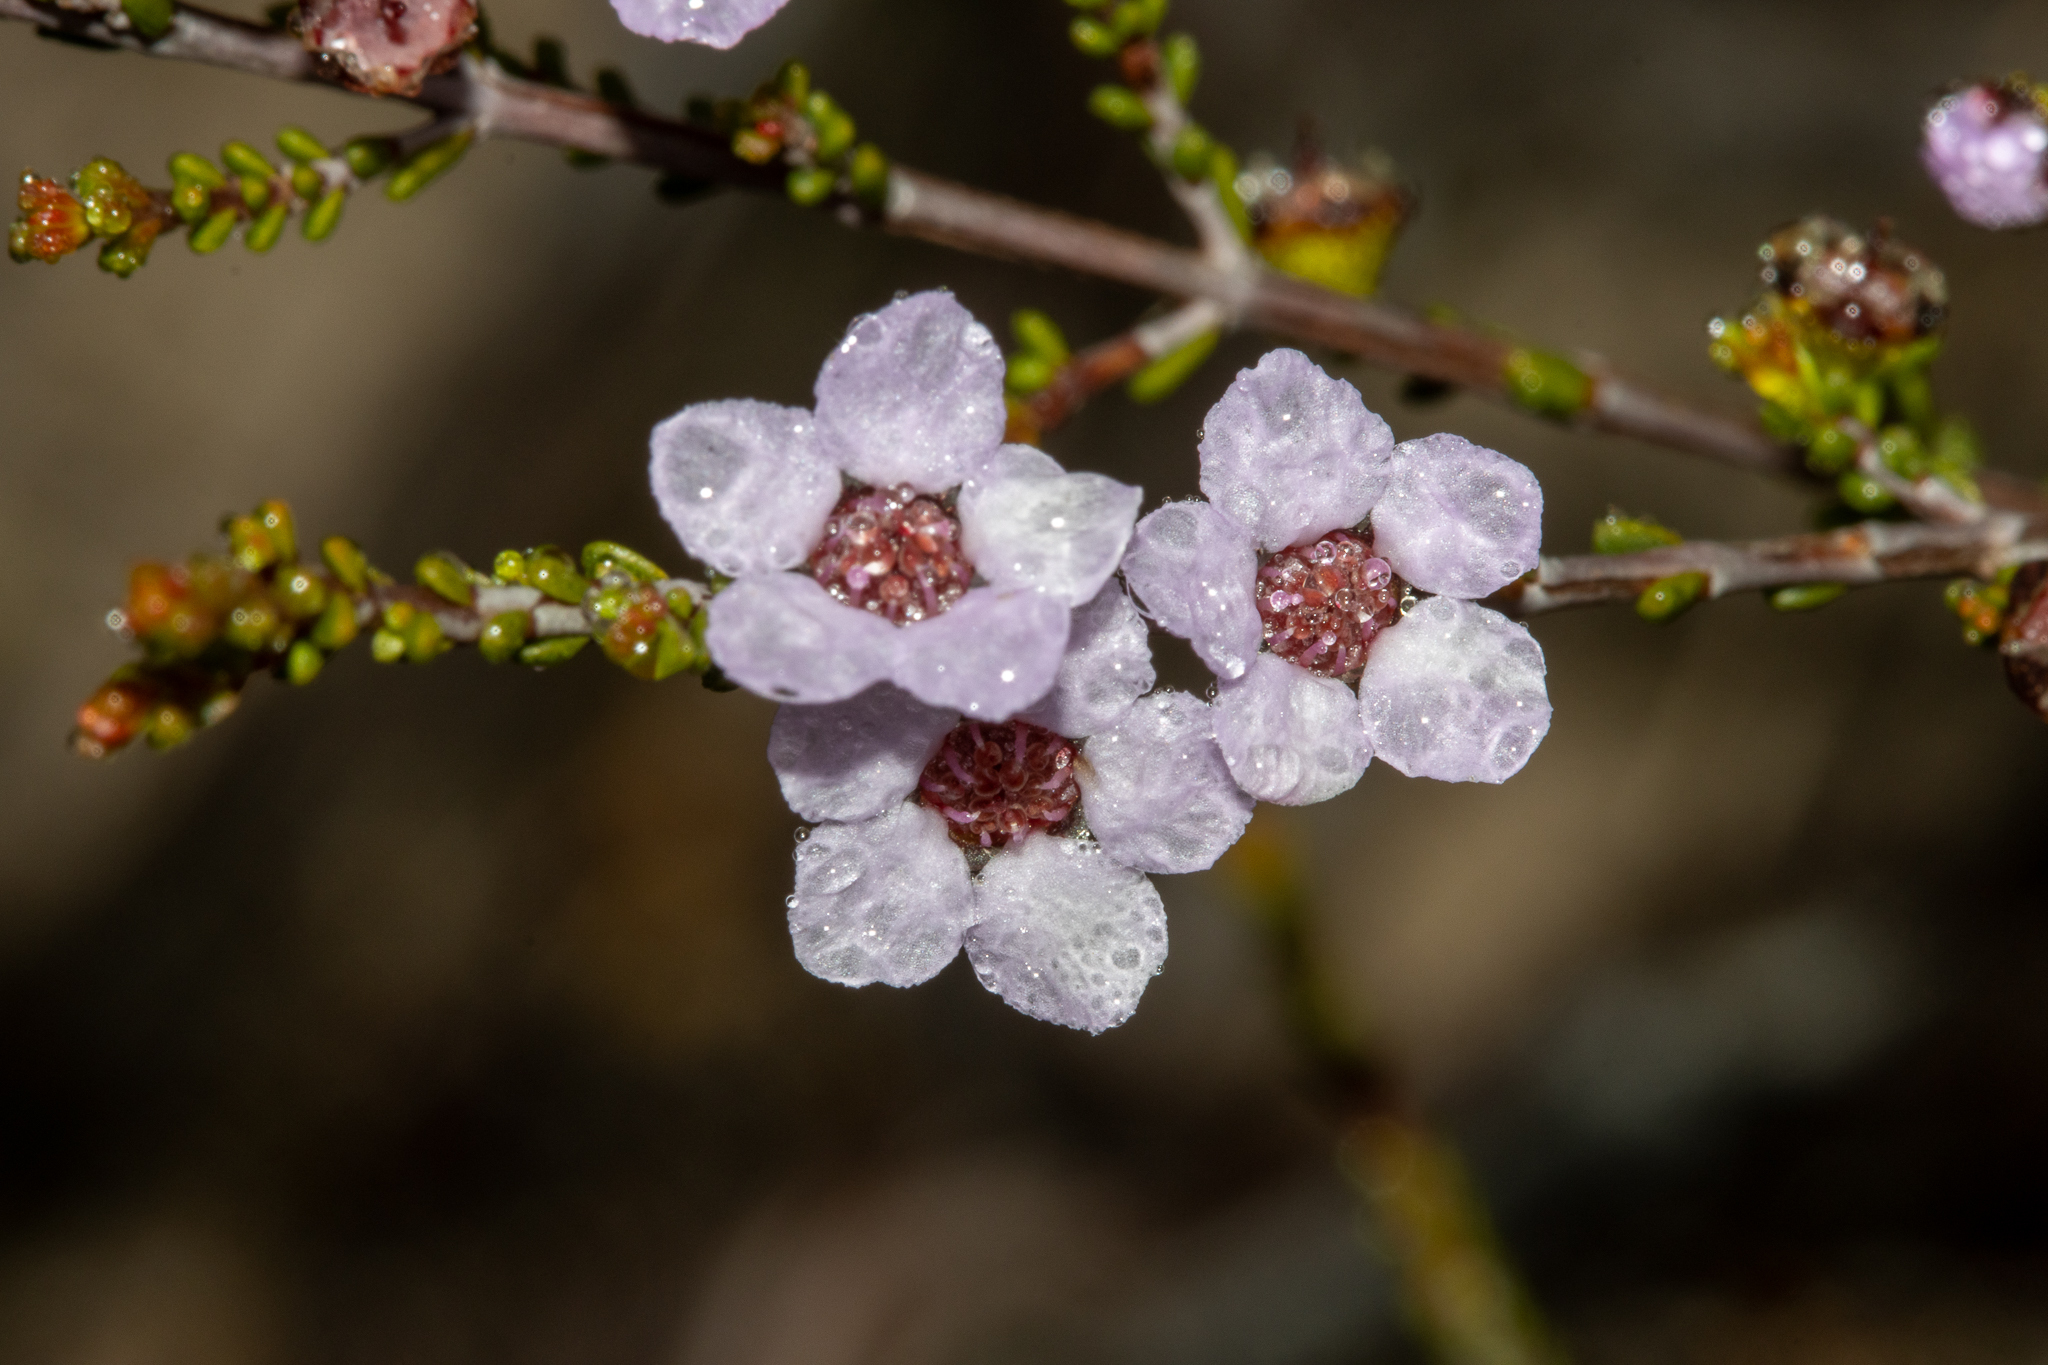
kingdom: Plantae
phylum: Tracheophyta
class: Magnoliopsida
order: Myrtales
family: Myrtaceae
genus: Rinzia
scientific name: Rinzia orientalis
